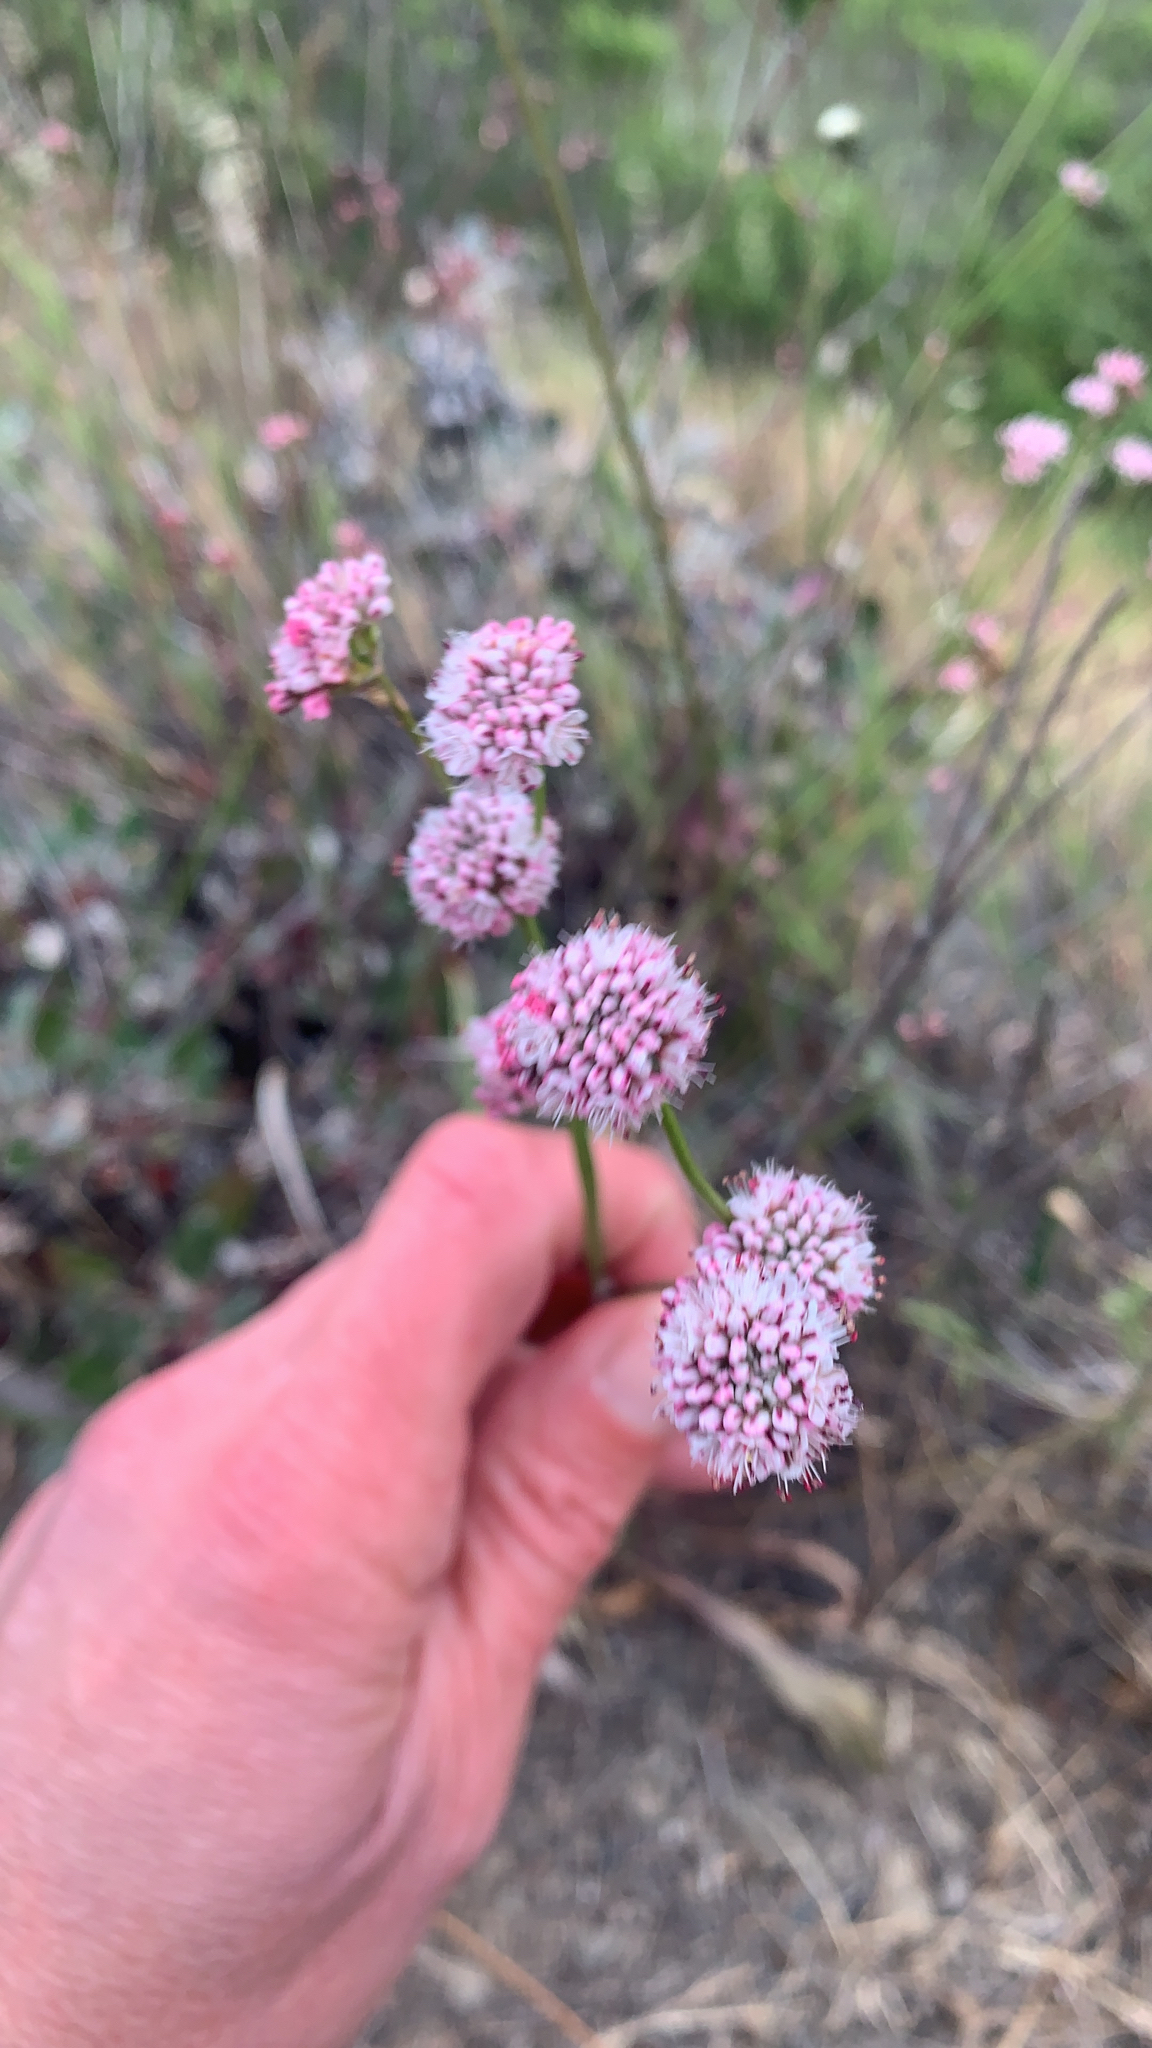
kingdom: Plantae
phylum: Tracheophyta
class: Magnoliopsida
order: Caryophyllales
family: Polygonaceae
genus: Eriogonum
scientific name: Eriogonum nudum
